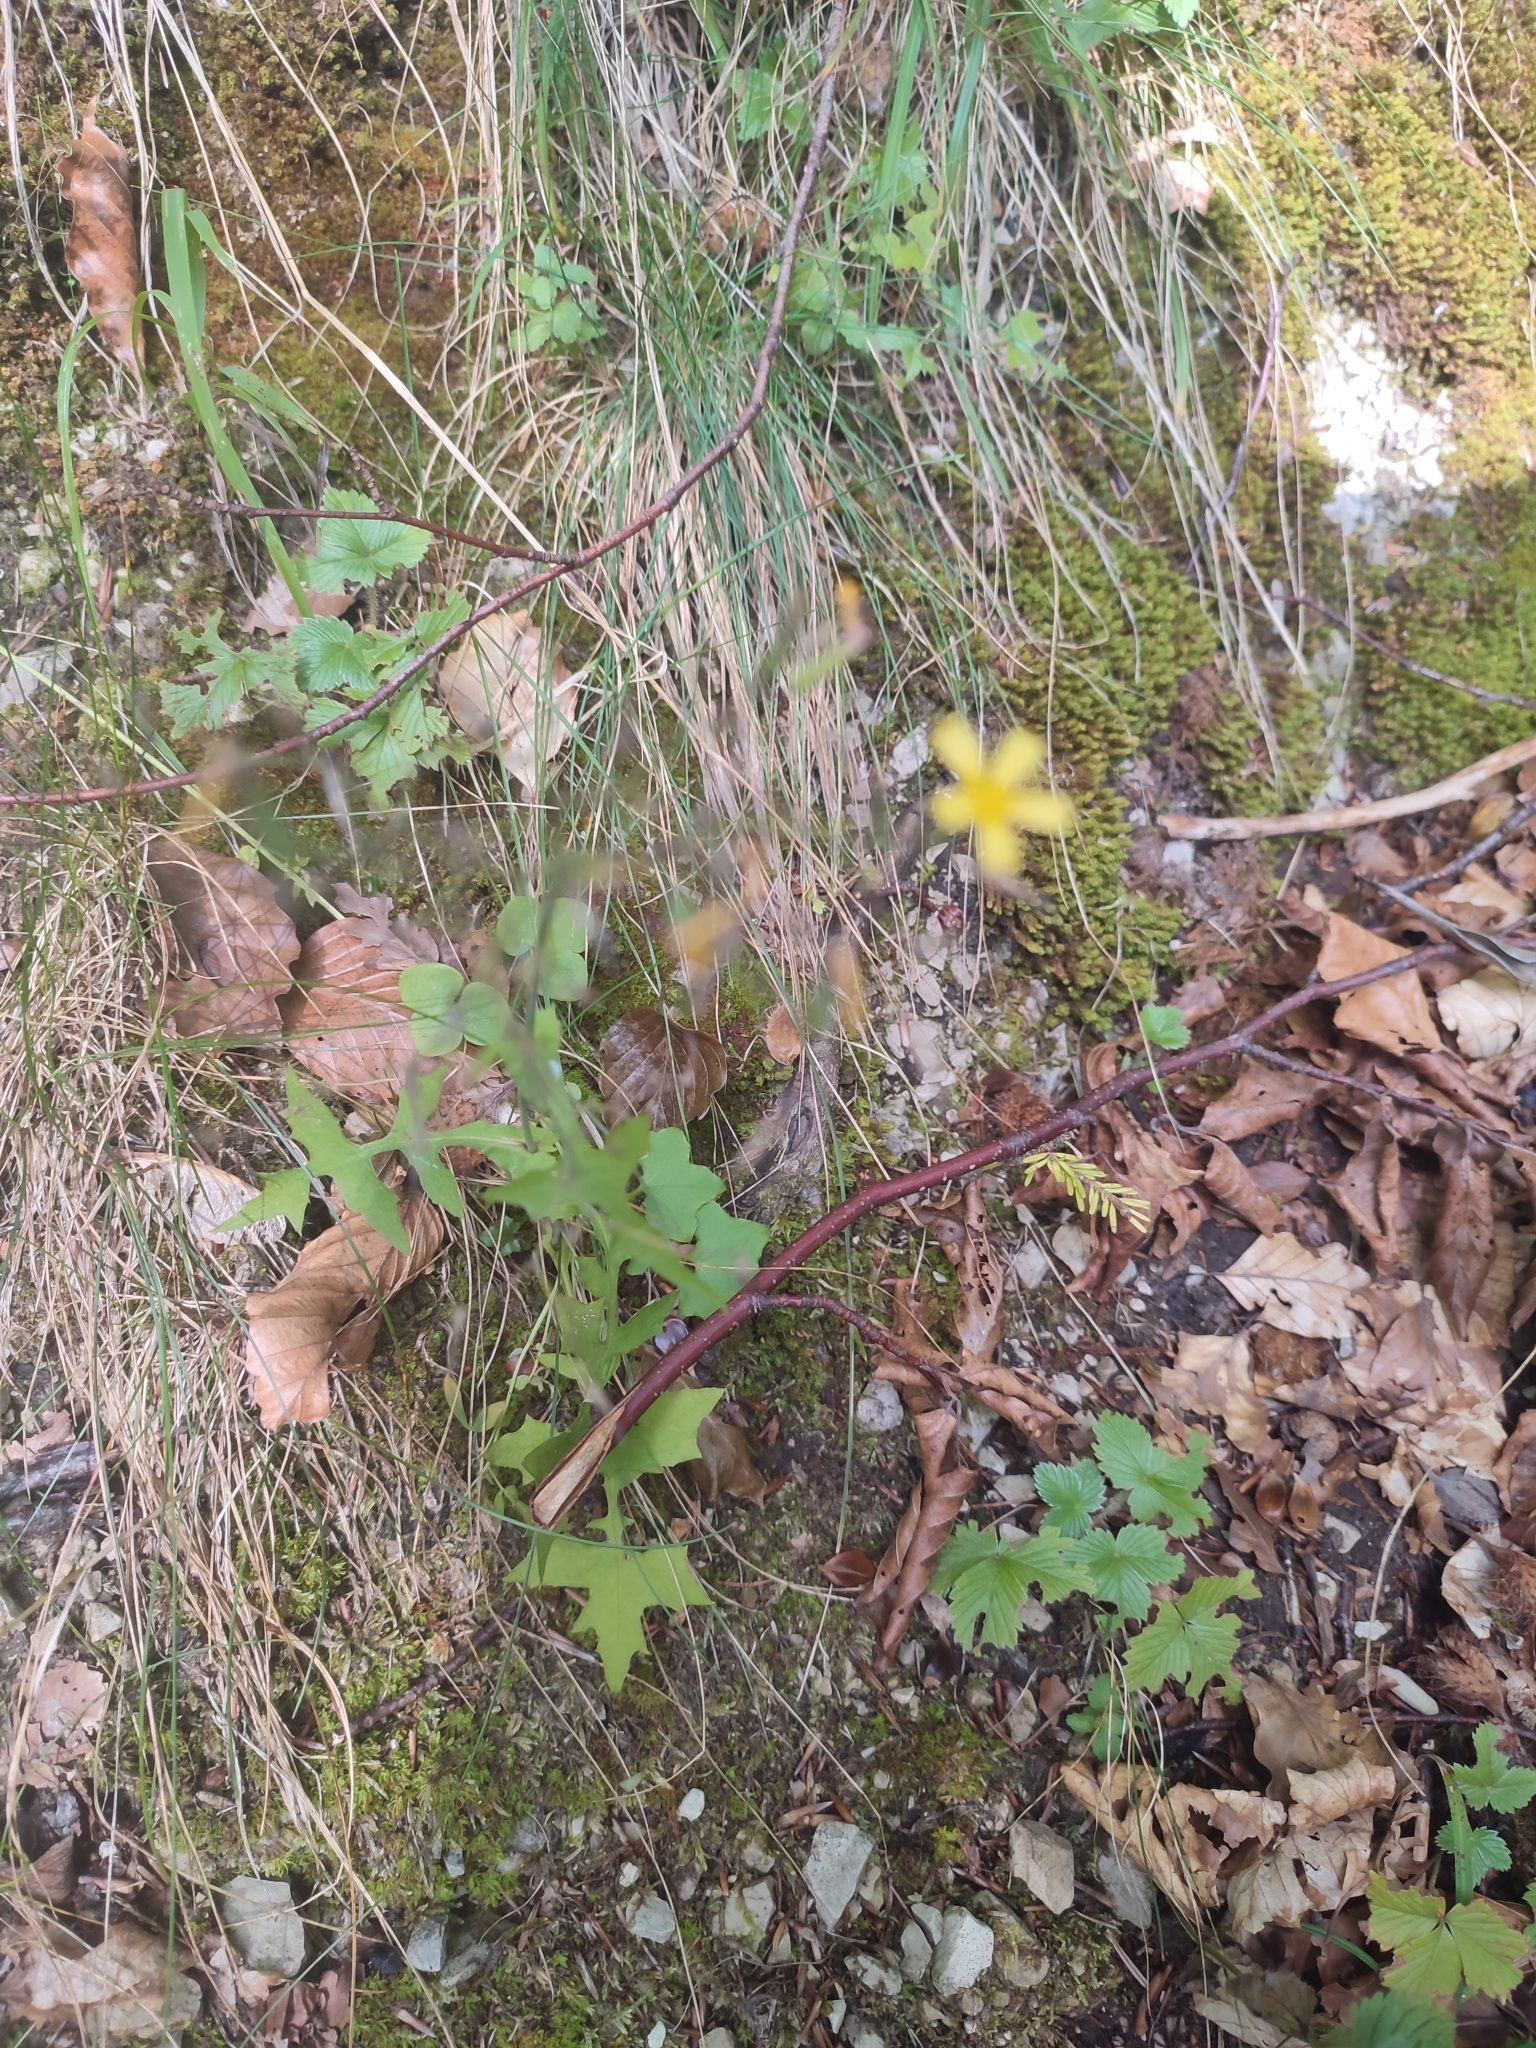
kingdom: Plantae
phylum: Tracheophyta
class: Magnoliopsida
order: Asterales
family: Asteraceae
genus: Mycelis
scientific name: Mycelis muralis
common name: Wall lettuce
